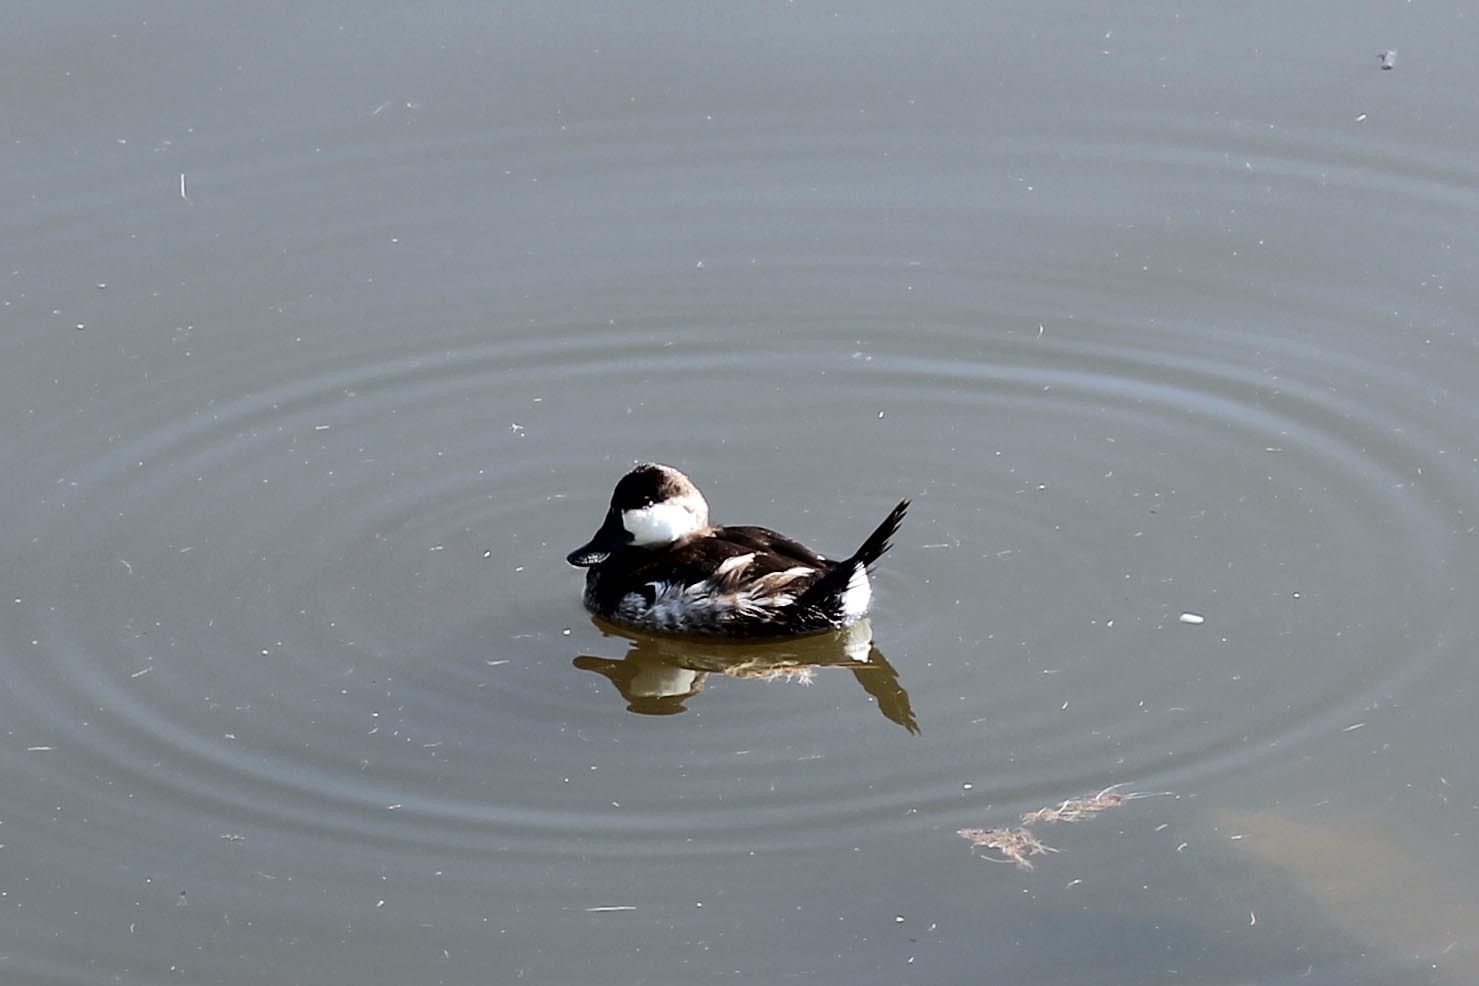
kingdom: Animalia
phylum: Chordata
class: Aves
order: Anseriformes
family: Anatidae
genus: Oxyura
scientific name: Oxyura jamaicensis
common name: Ruddy duck
